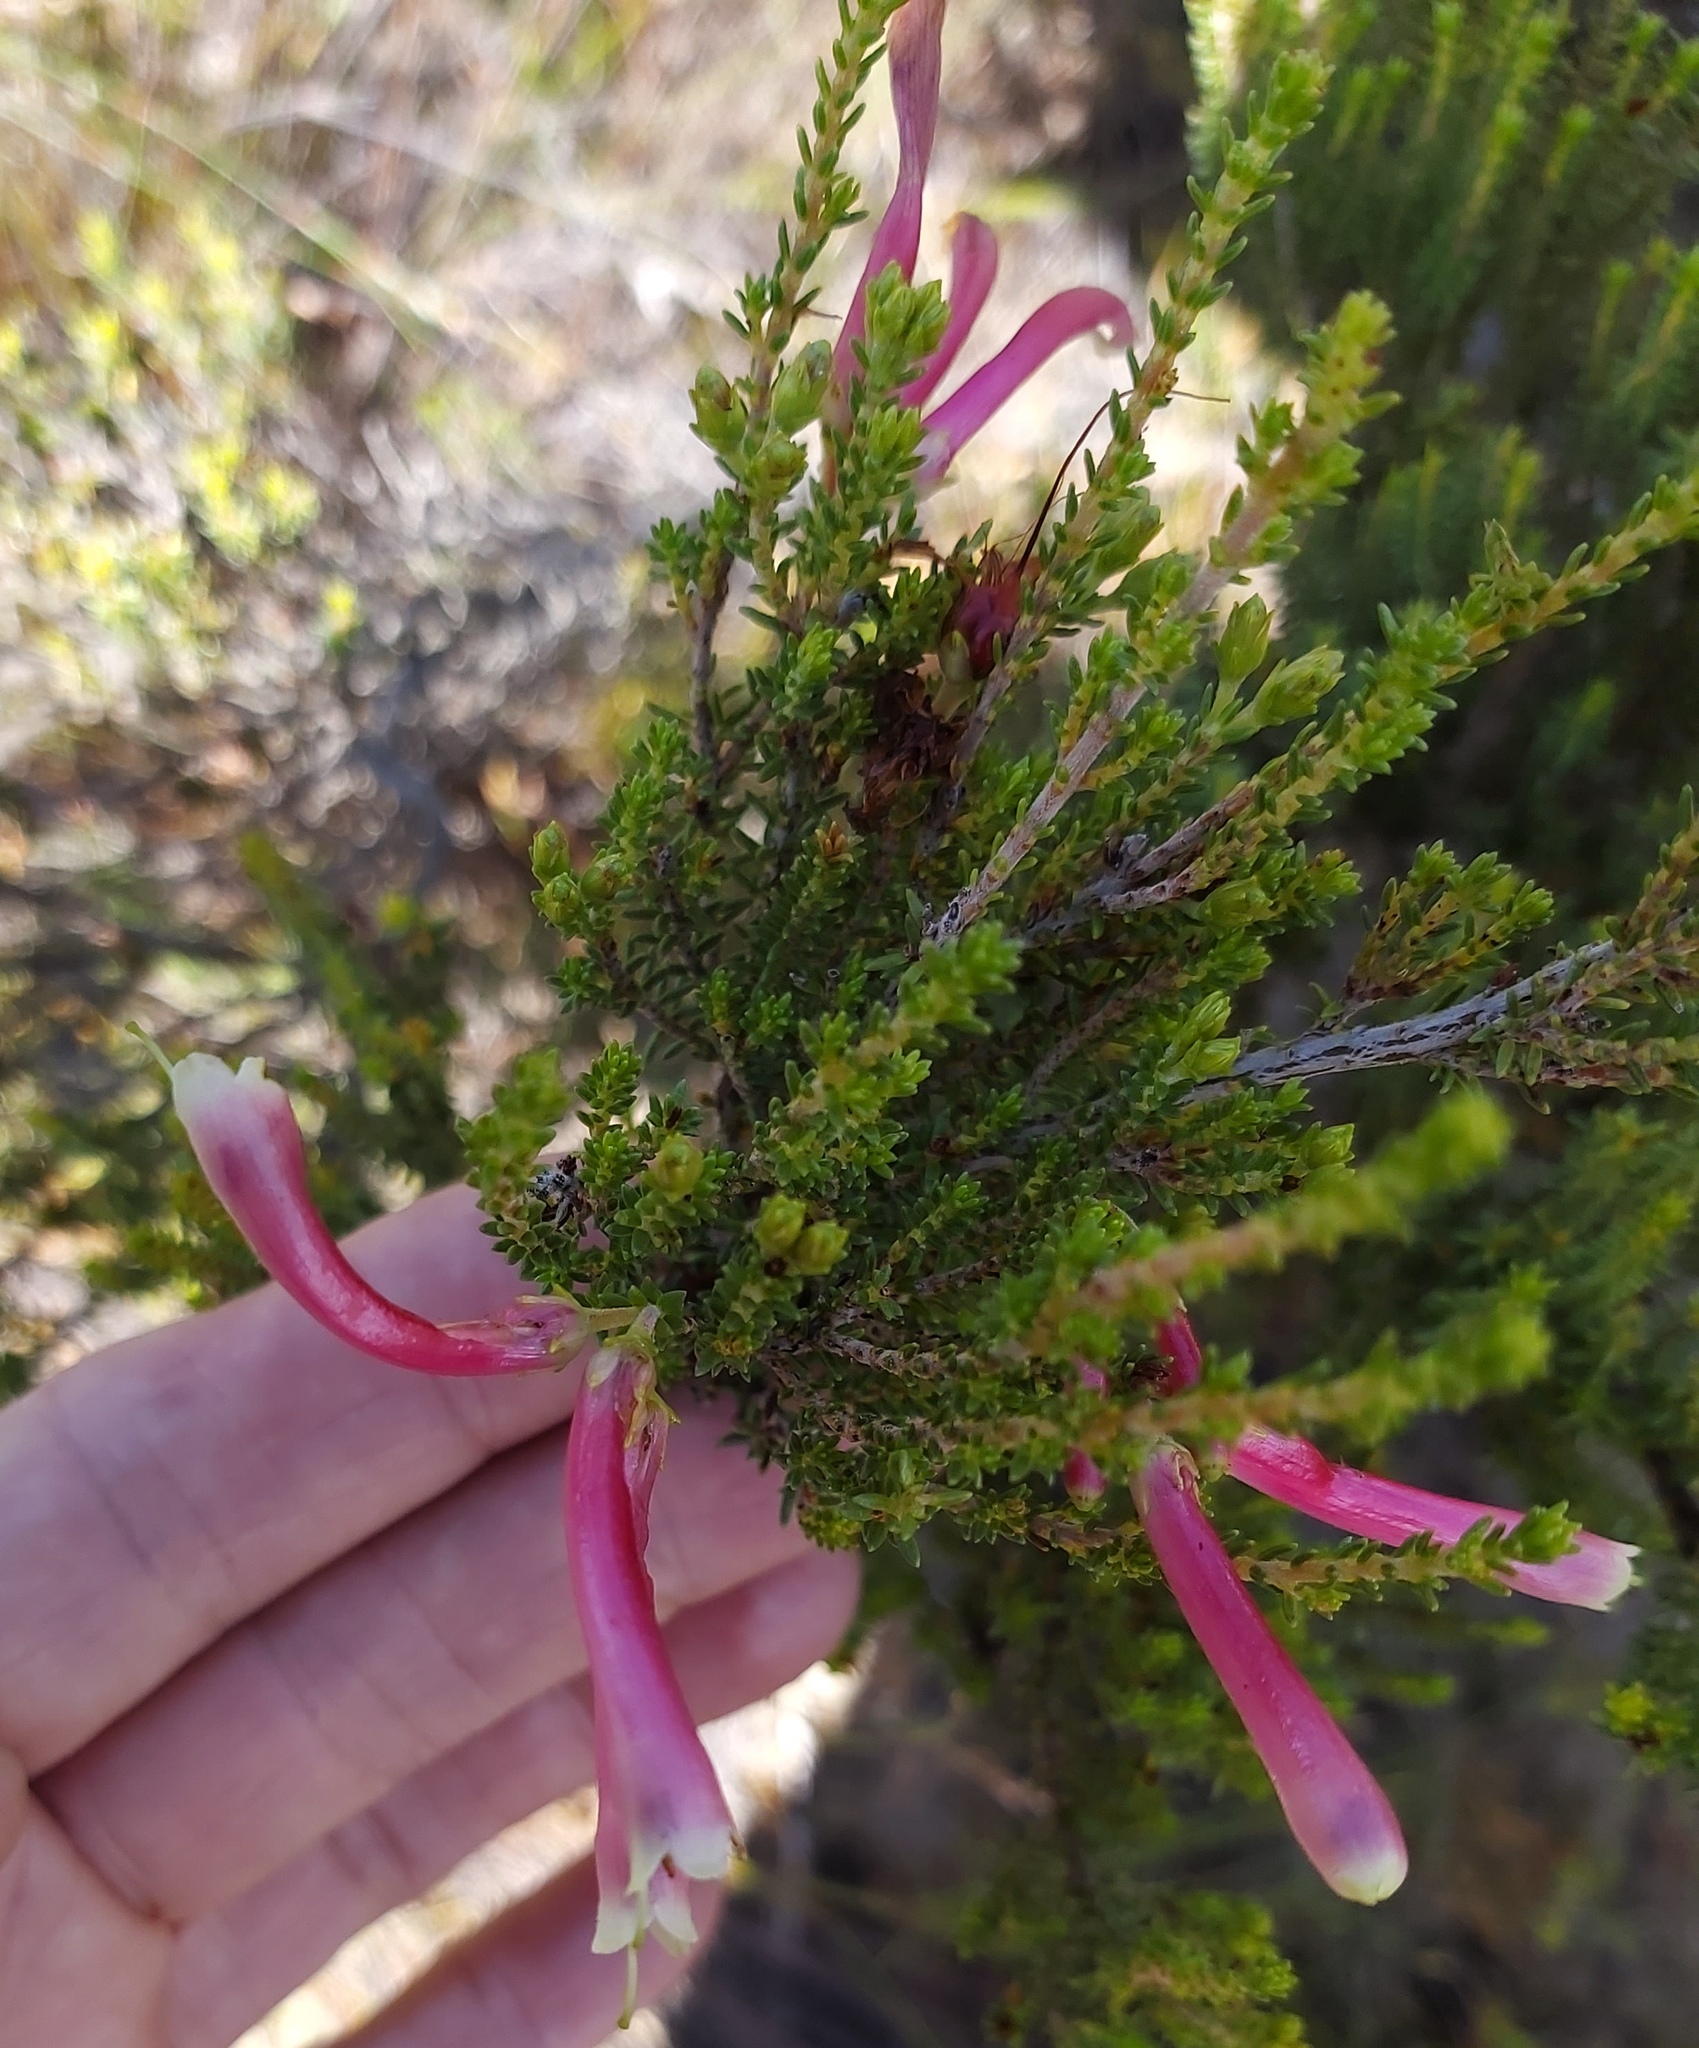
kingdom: Plantae
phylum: Tracheophyta
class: Magnoliopsida
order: Ericales
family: Ericaceae
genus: Erica
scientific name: Erica discolor
